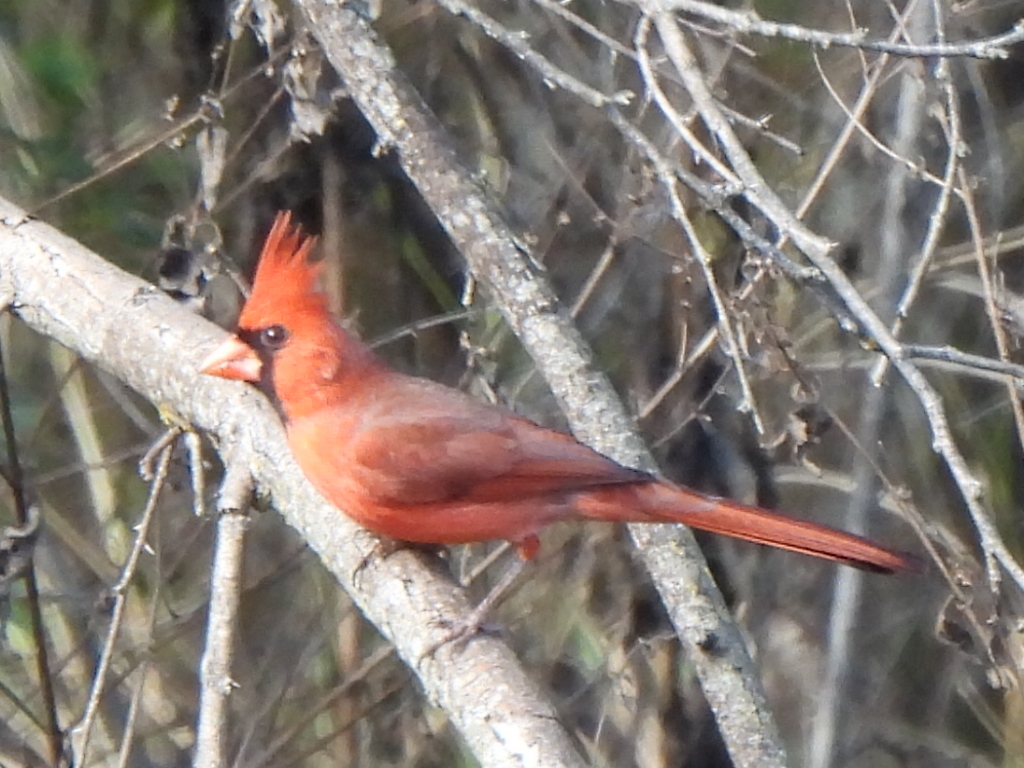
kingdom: Animalia
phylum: Chordata
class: Aves
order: Passeriformes
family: Cardinalidae
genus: Cardinalis
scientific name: Cardinalis cardinalis
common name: Northern cardinal
